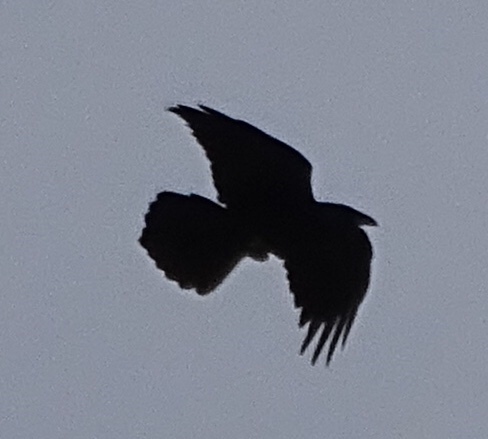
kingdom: Animalia
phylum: Chordata
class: Aves
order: Passeriformes
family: Corvidae
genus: Corvus
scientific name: Corvus corax
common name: Common raven
